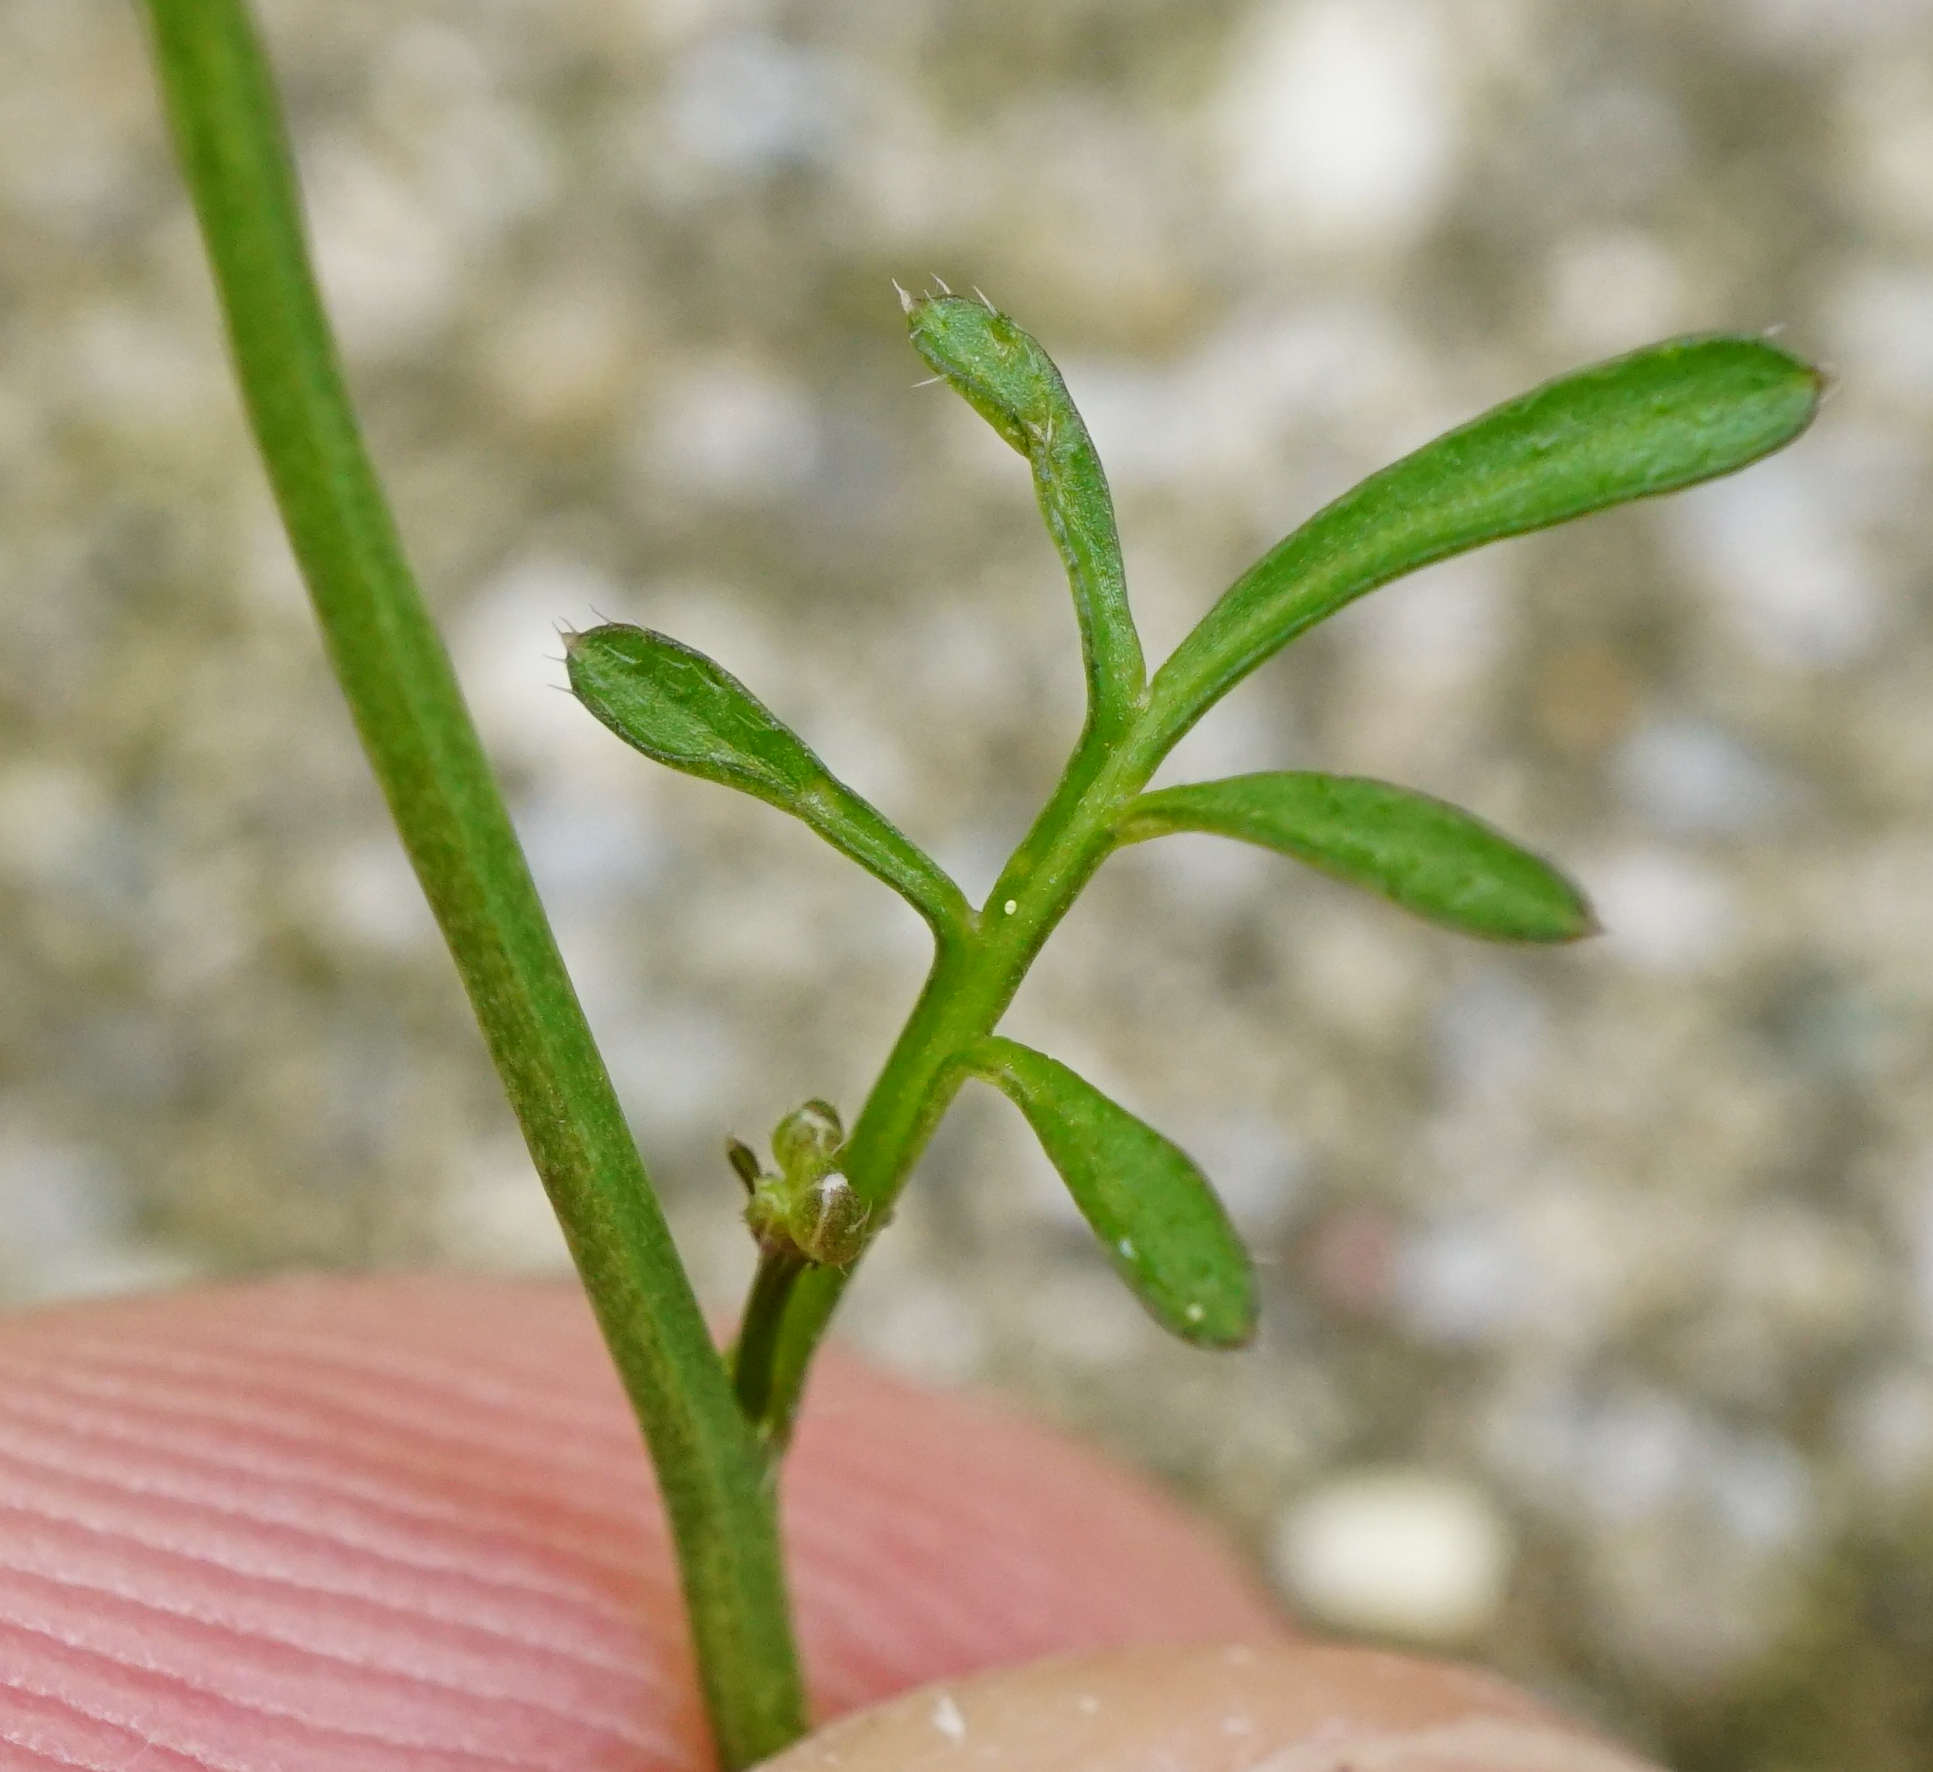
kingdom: Plantae
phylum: Tracheophyta
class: Magnoliopsida
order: Brassicales
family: Brassicaceae
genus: Cardamine
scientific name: Cardamine hirsuta
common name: Hairy bittercress
